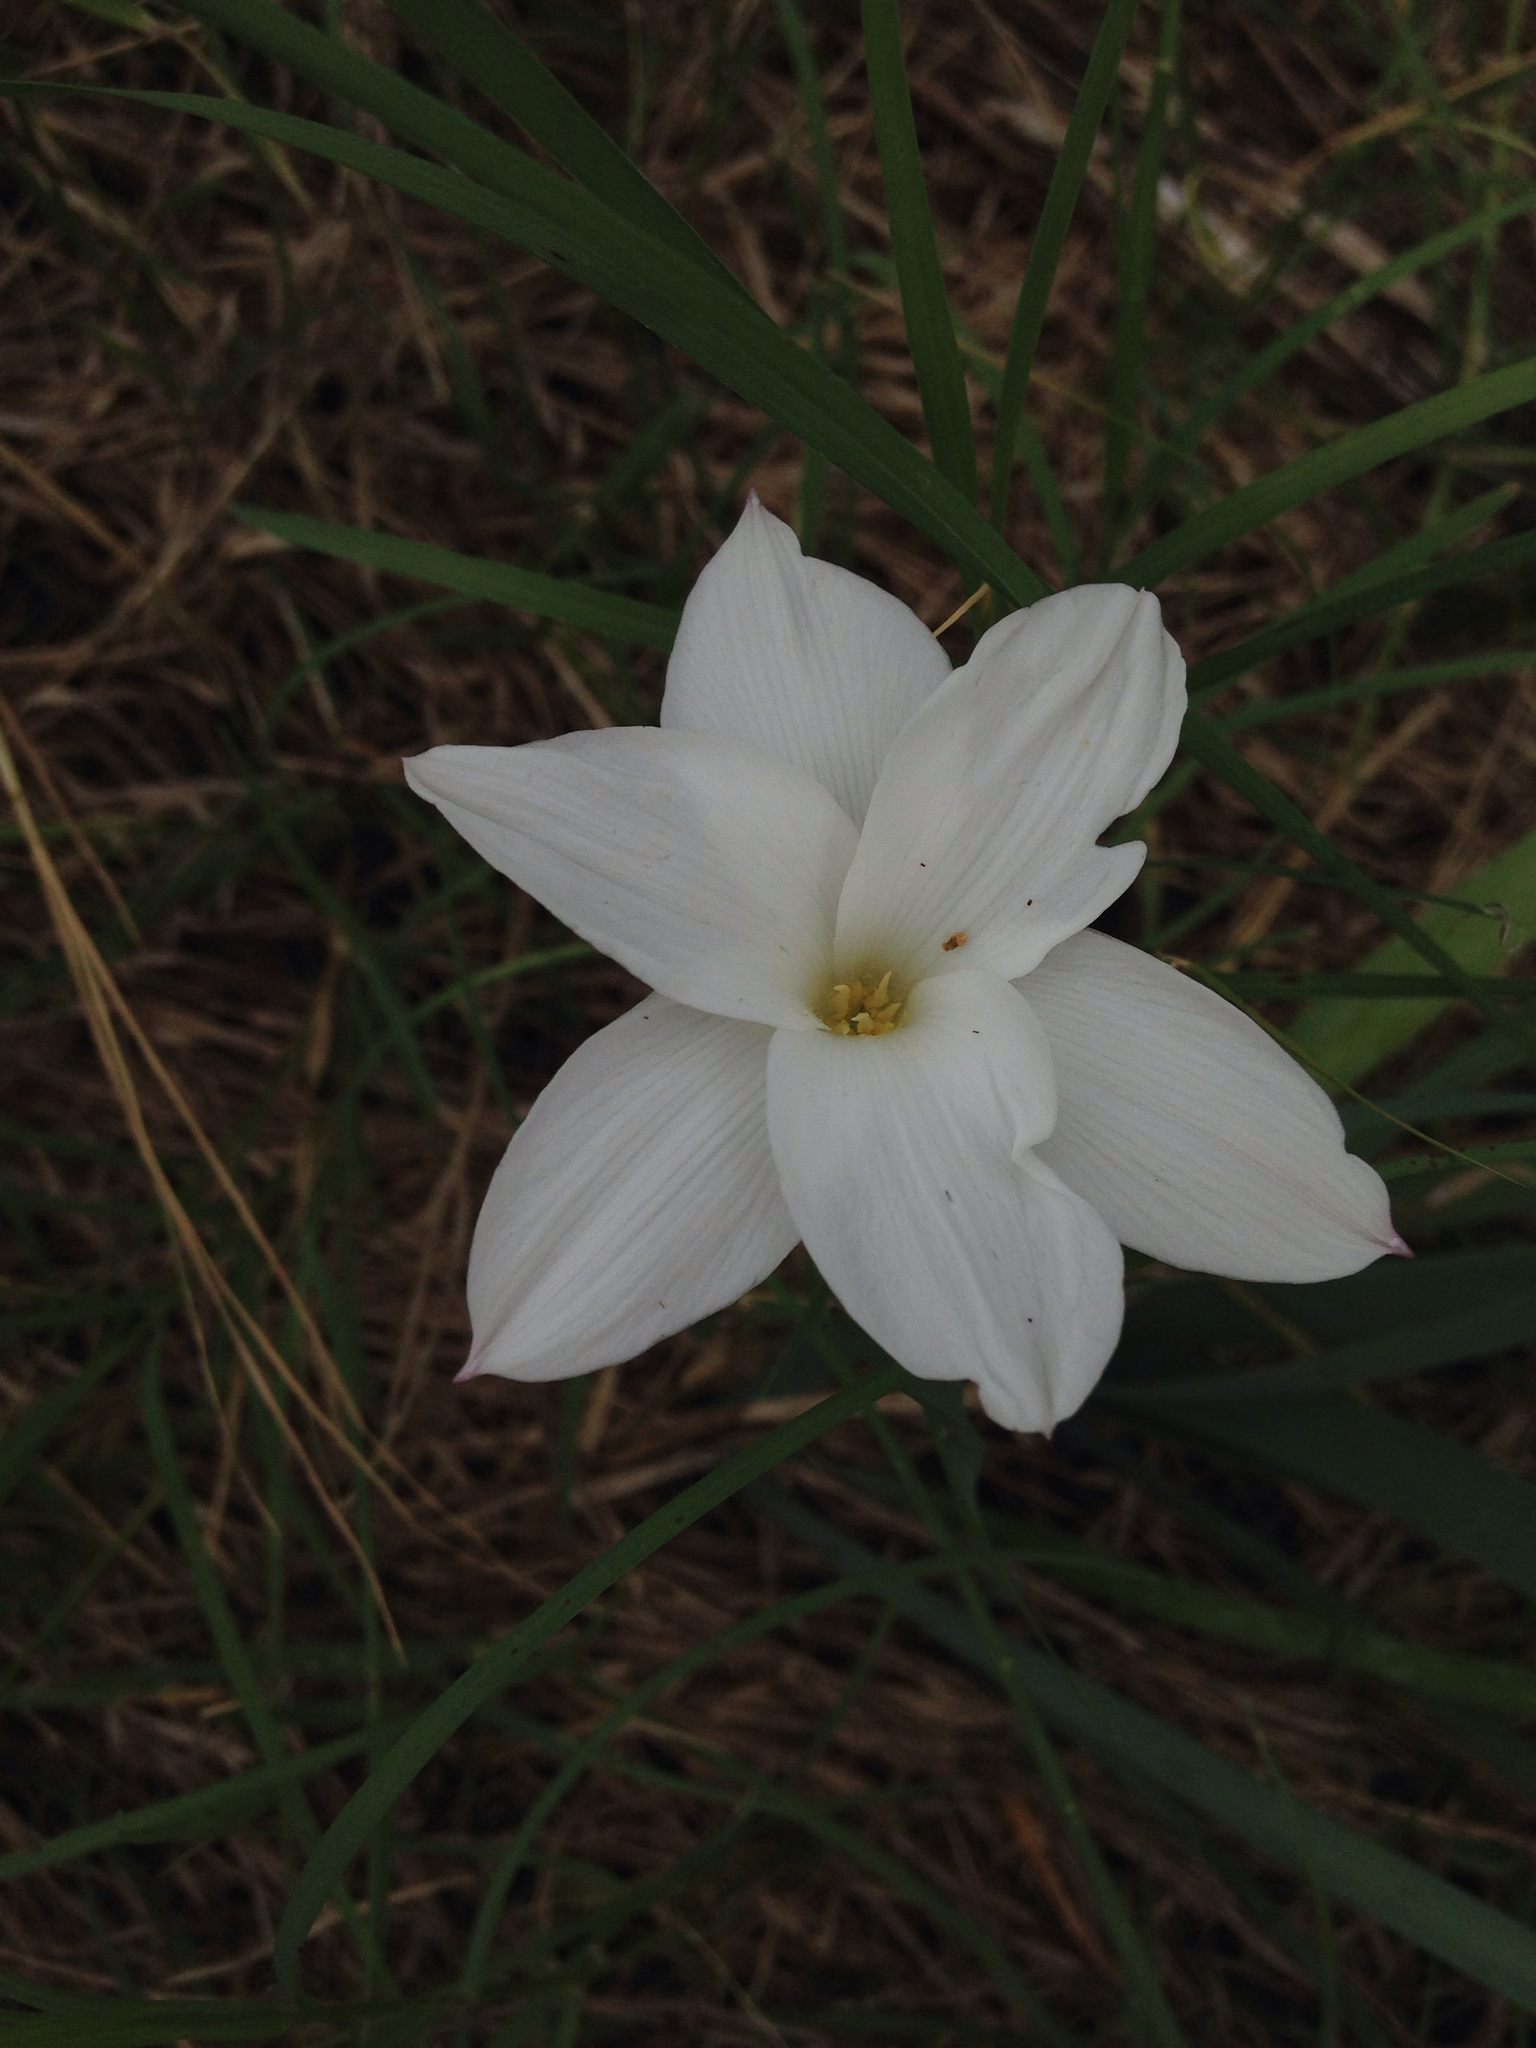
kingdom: Plantae
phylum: Tracheophyta
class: Liliopsida
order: Asparagales
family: Amaryllidaceae
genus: Zephyranthes
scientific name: Zephyranthes drummondii
